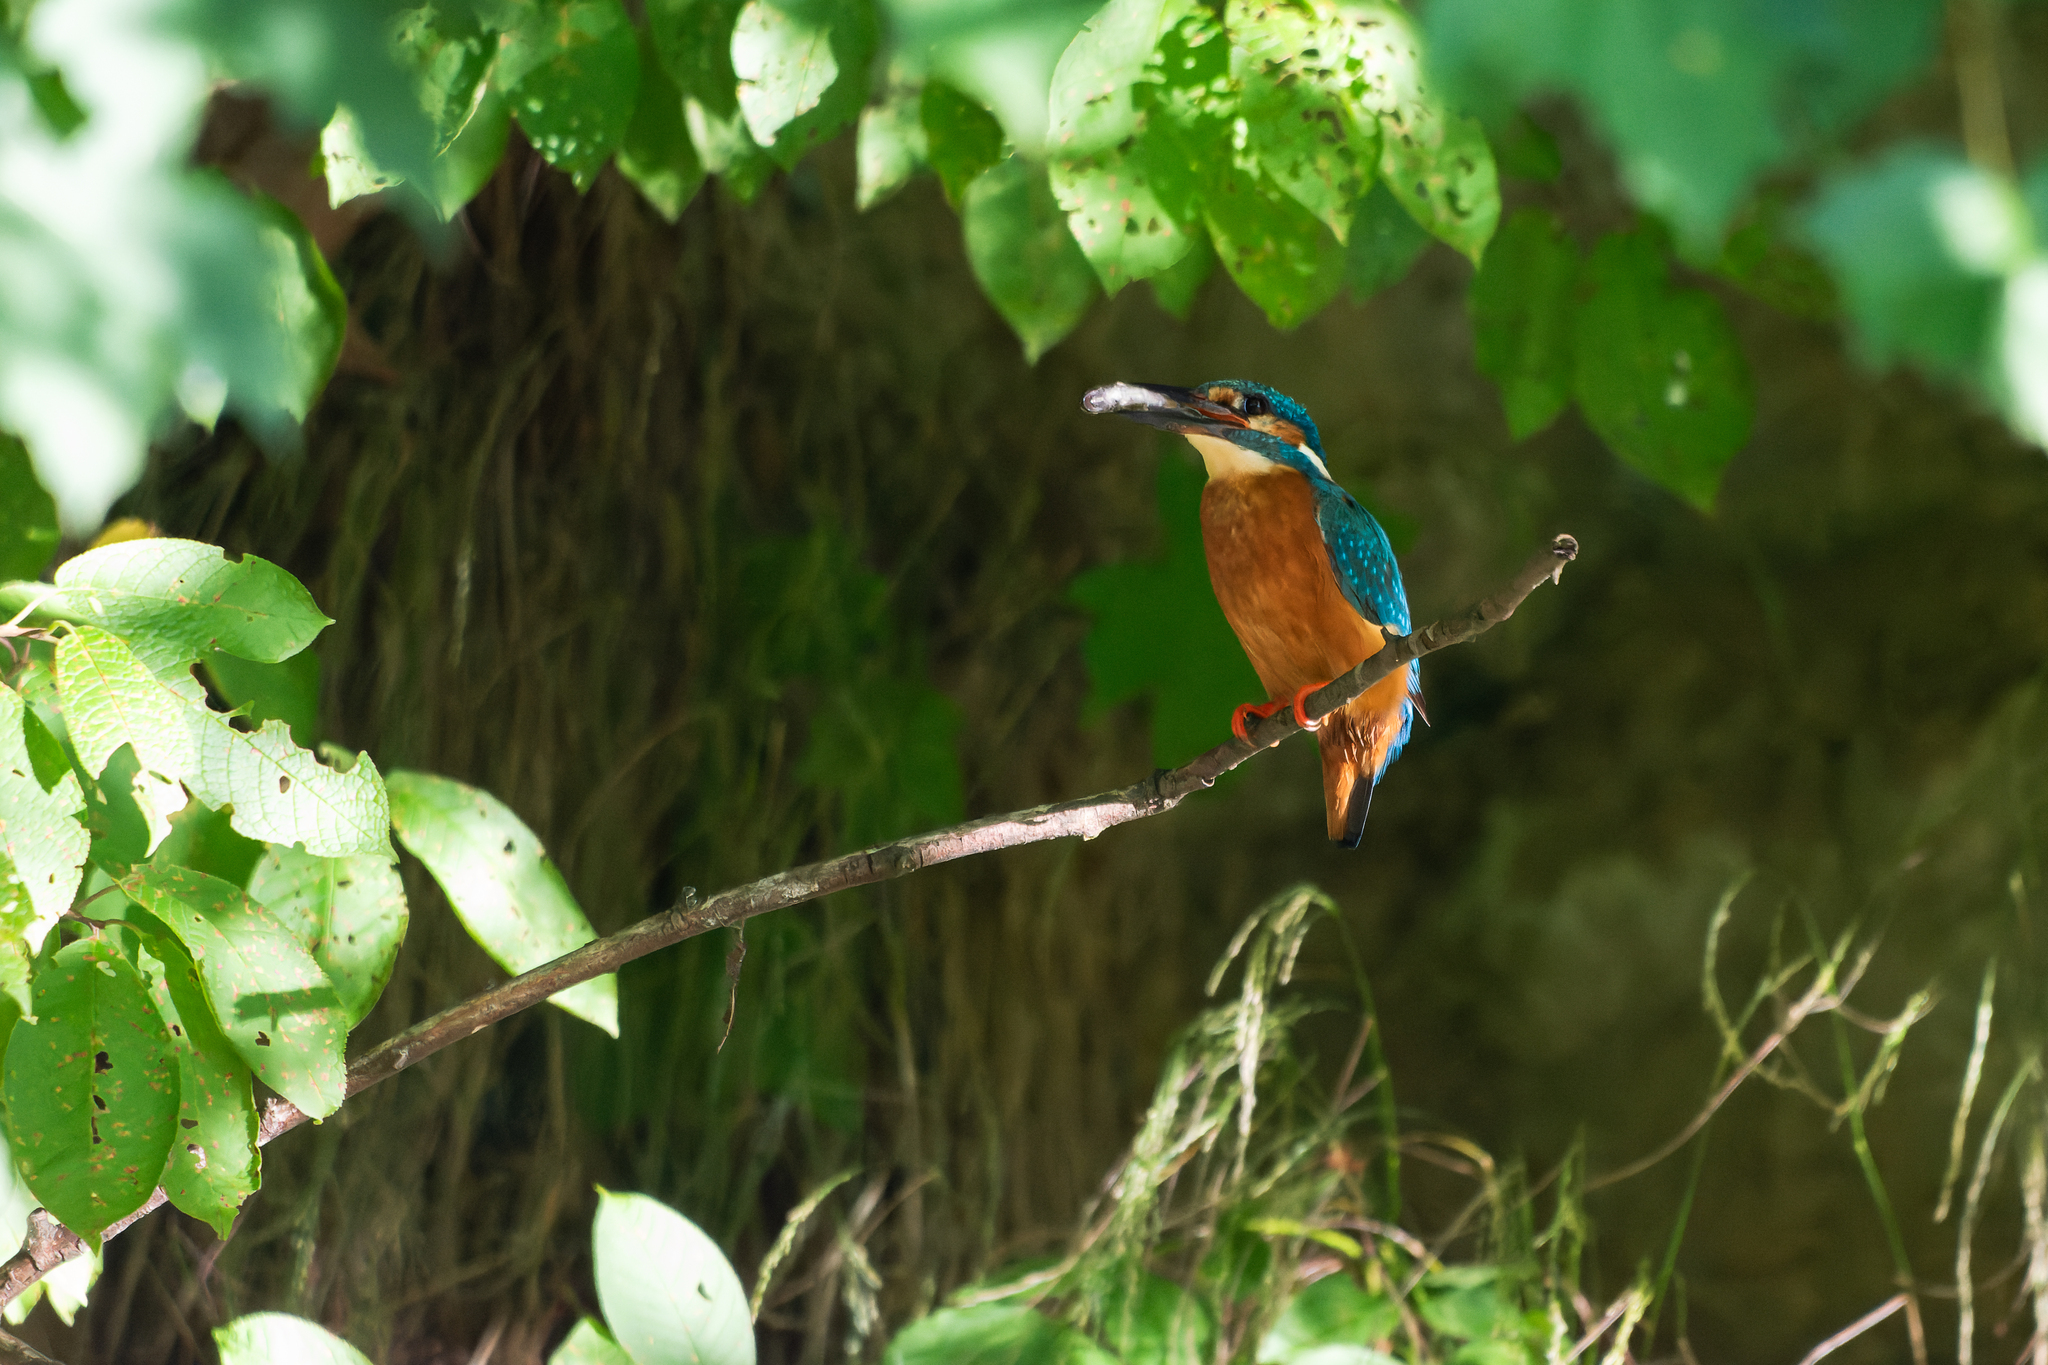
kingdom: Animalia
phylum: Chordata
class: Aves
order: Coraciiformes
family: Alcedinidae
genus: Alcedo
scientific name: Alcedo atthis
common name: Common kingfisher
